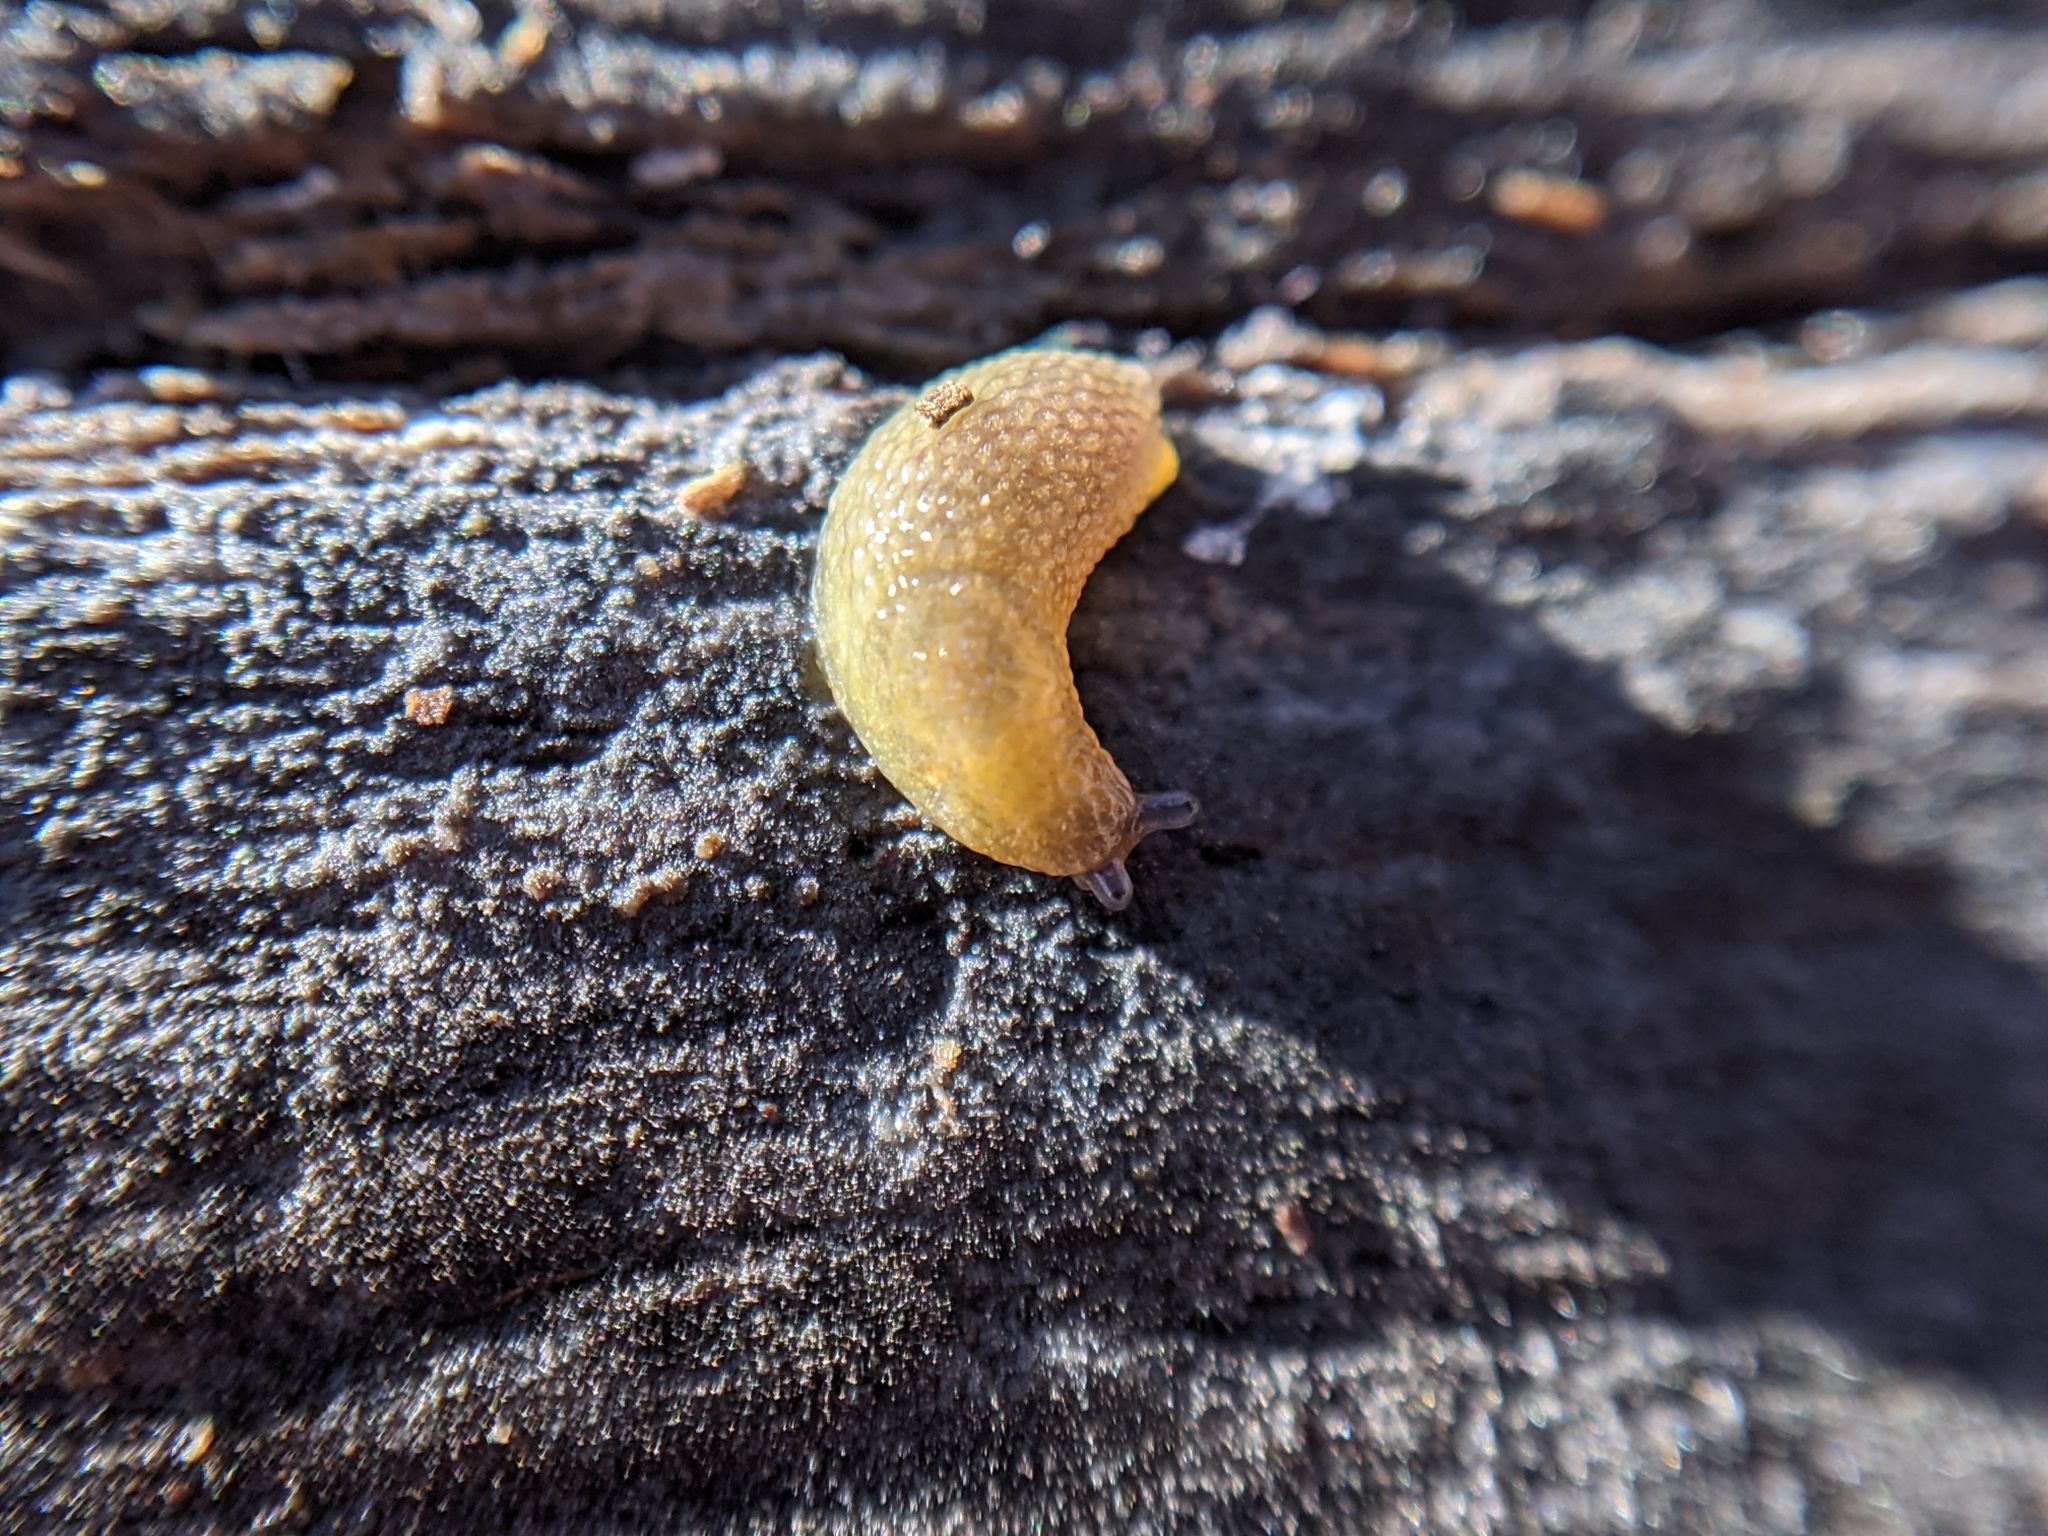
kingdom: Animalia
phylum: Mollusca
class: Gastropoda
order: Stylommatophora
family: Arionidae
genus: Arion
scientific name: Arion intermedius
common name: Hedgehog slug
